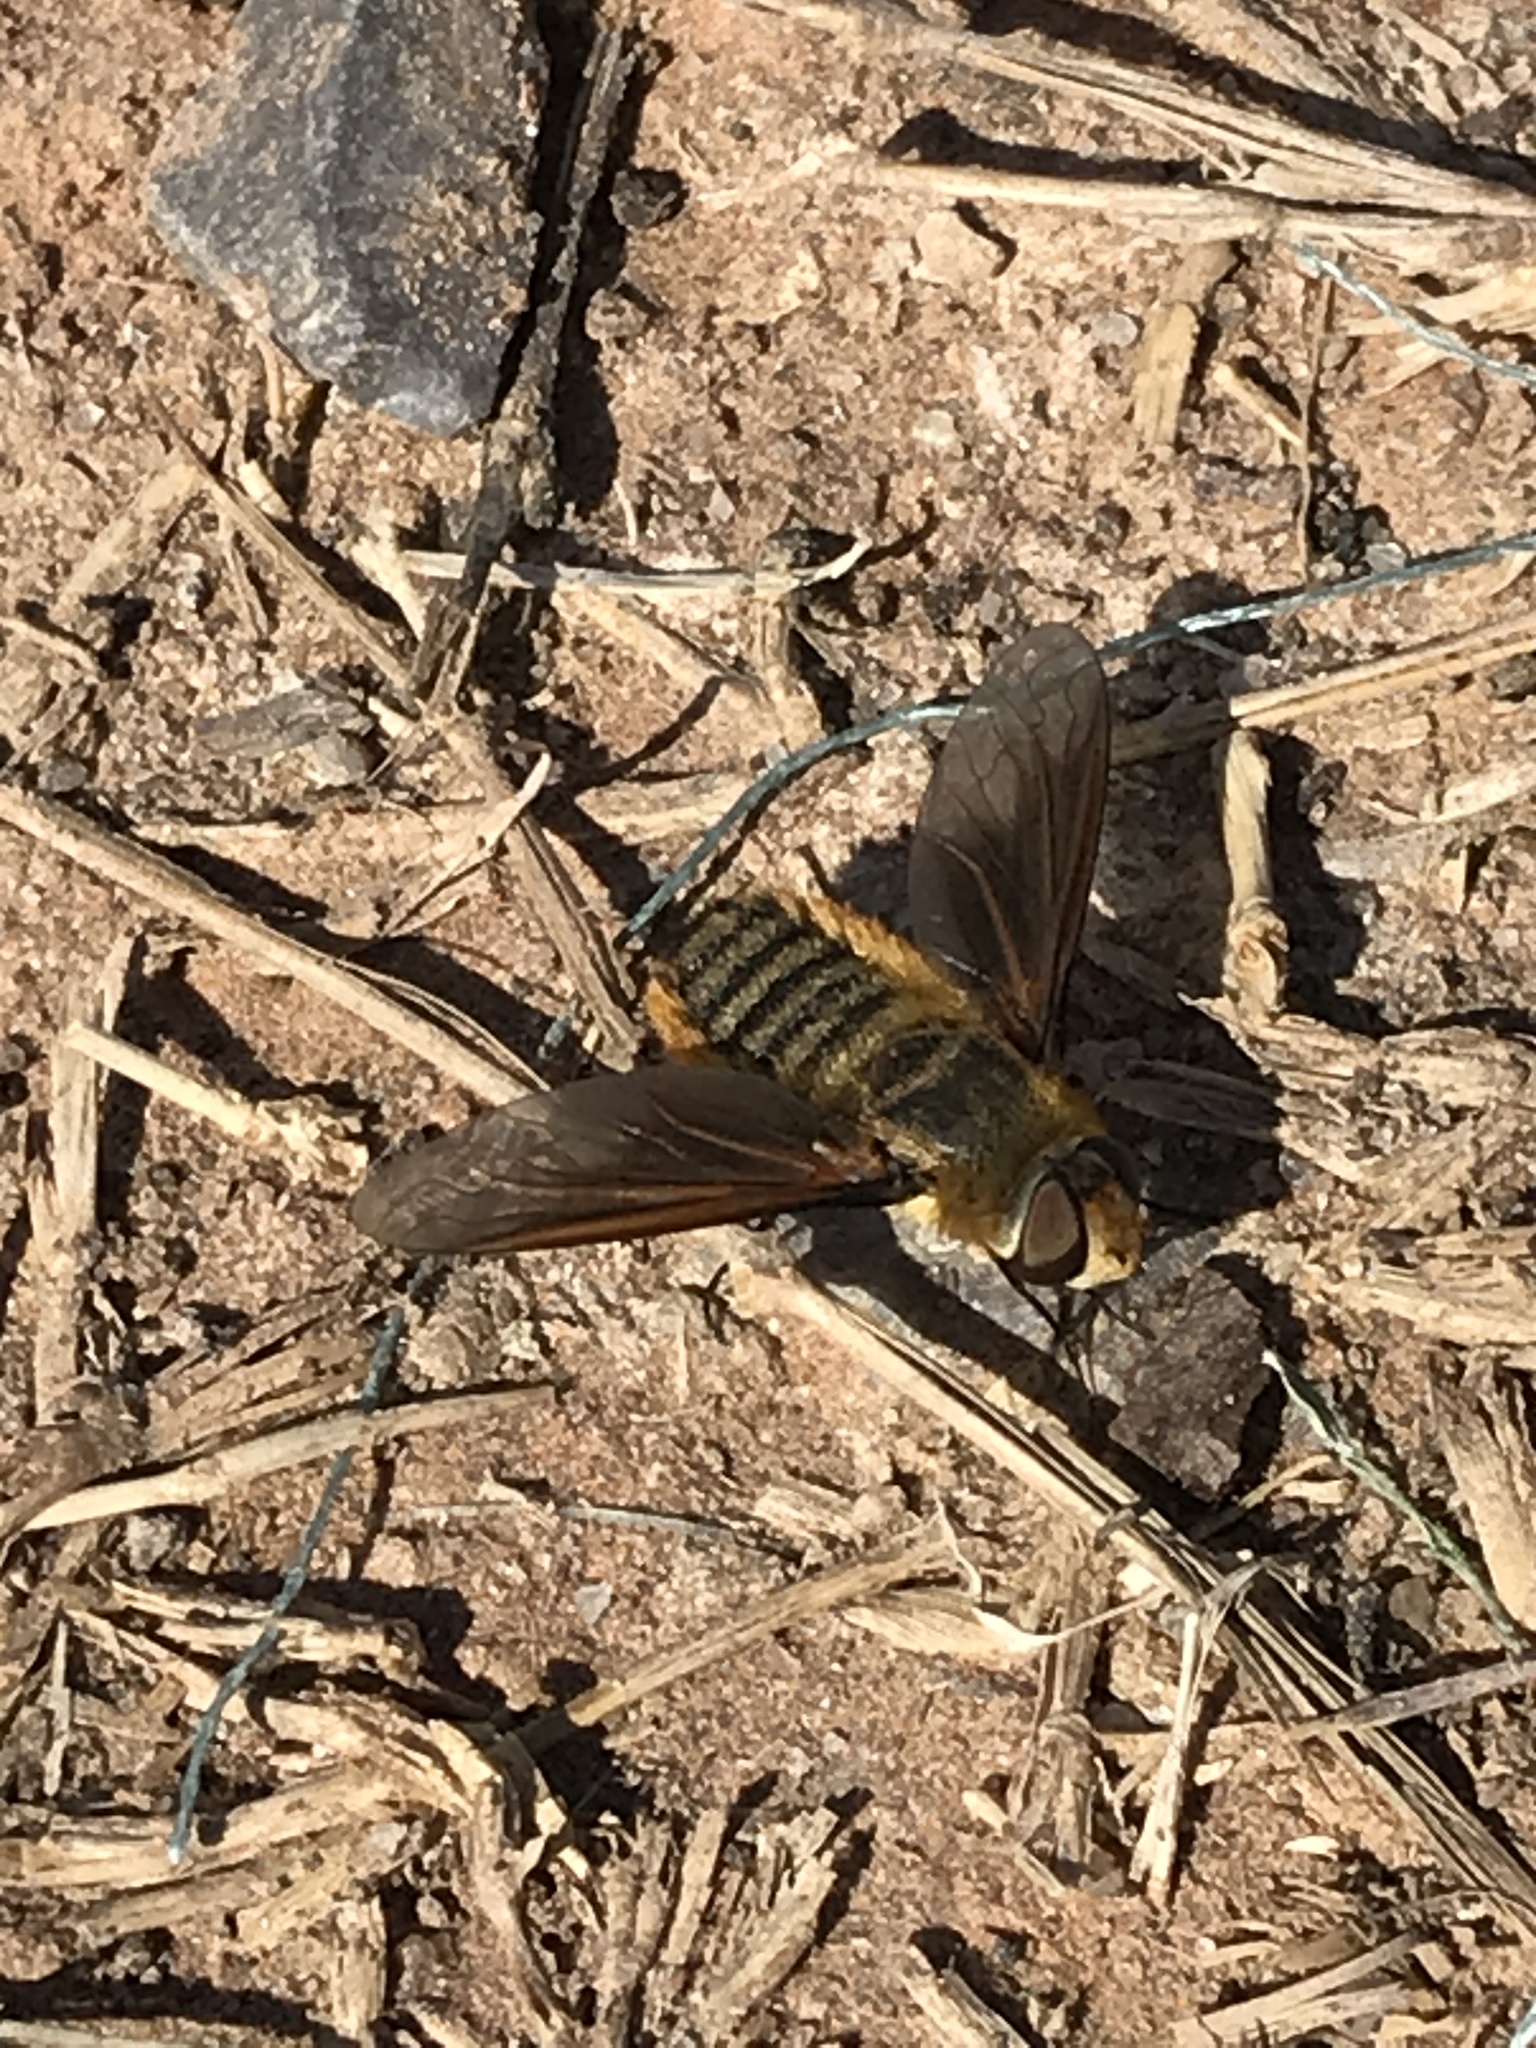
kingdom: Animalia
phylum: Arthropoda
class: Insecta
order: Diptera
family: Bombyliidae
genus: Poecilanthrax
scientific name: Poecilanthrax lucifer
